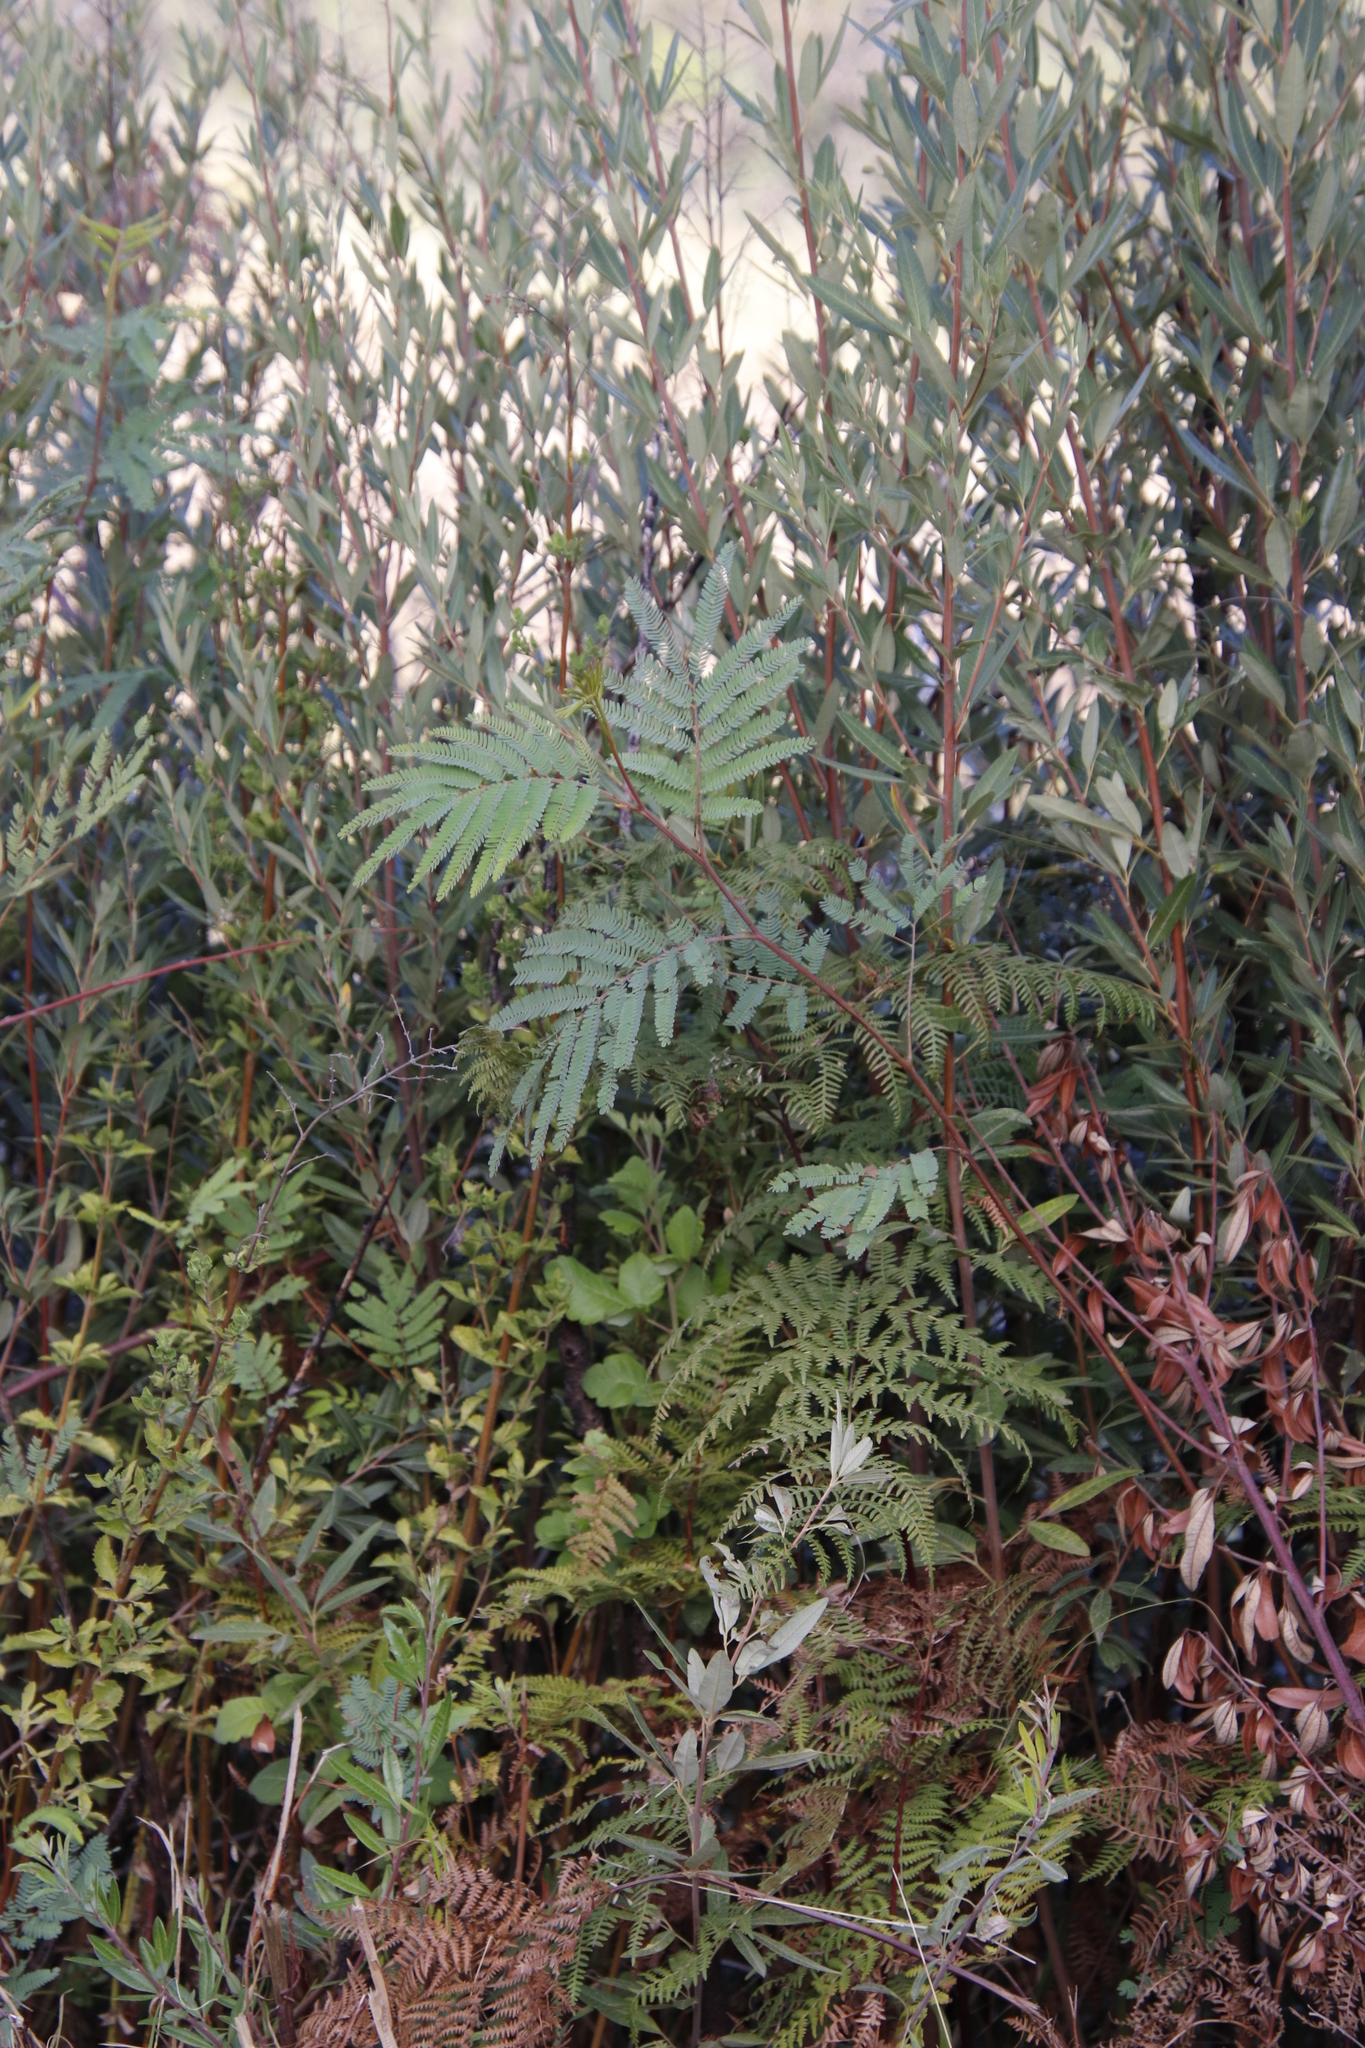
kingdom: Plantae
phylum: Tracheophyta
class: Magnoliopsida
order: Fabales
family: Fabaceae
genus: Paraserianthes
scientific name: Paraserianthes lophantha
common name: Plume albizia
